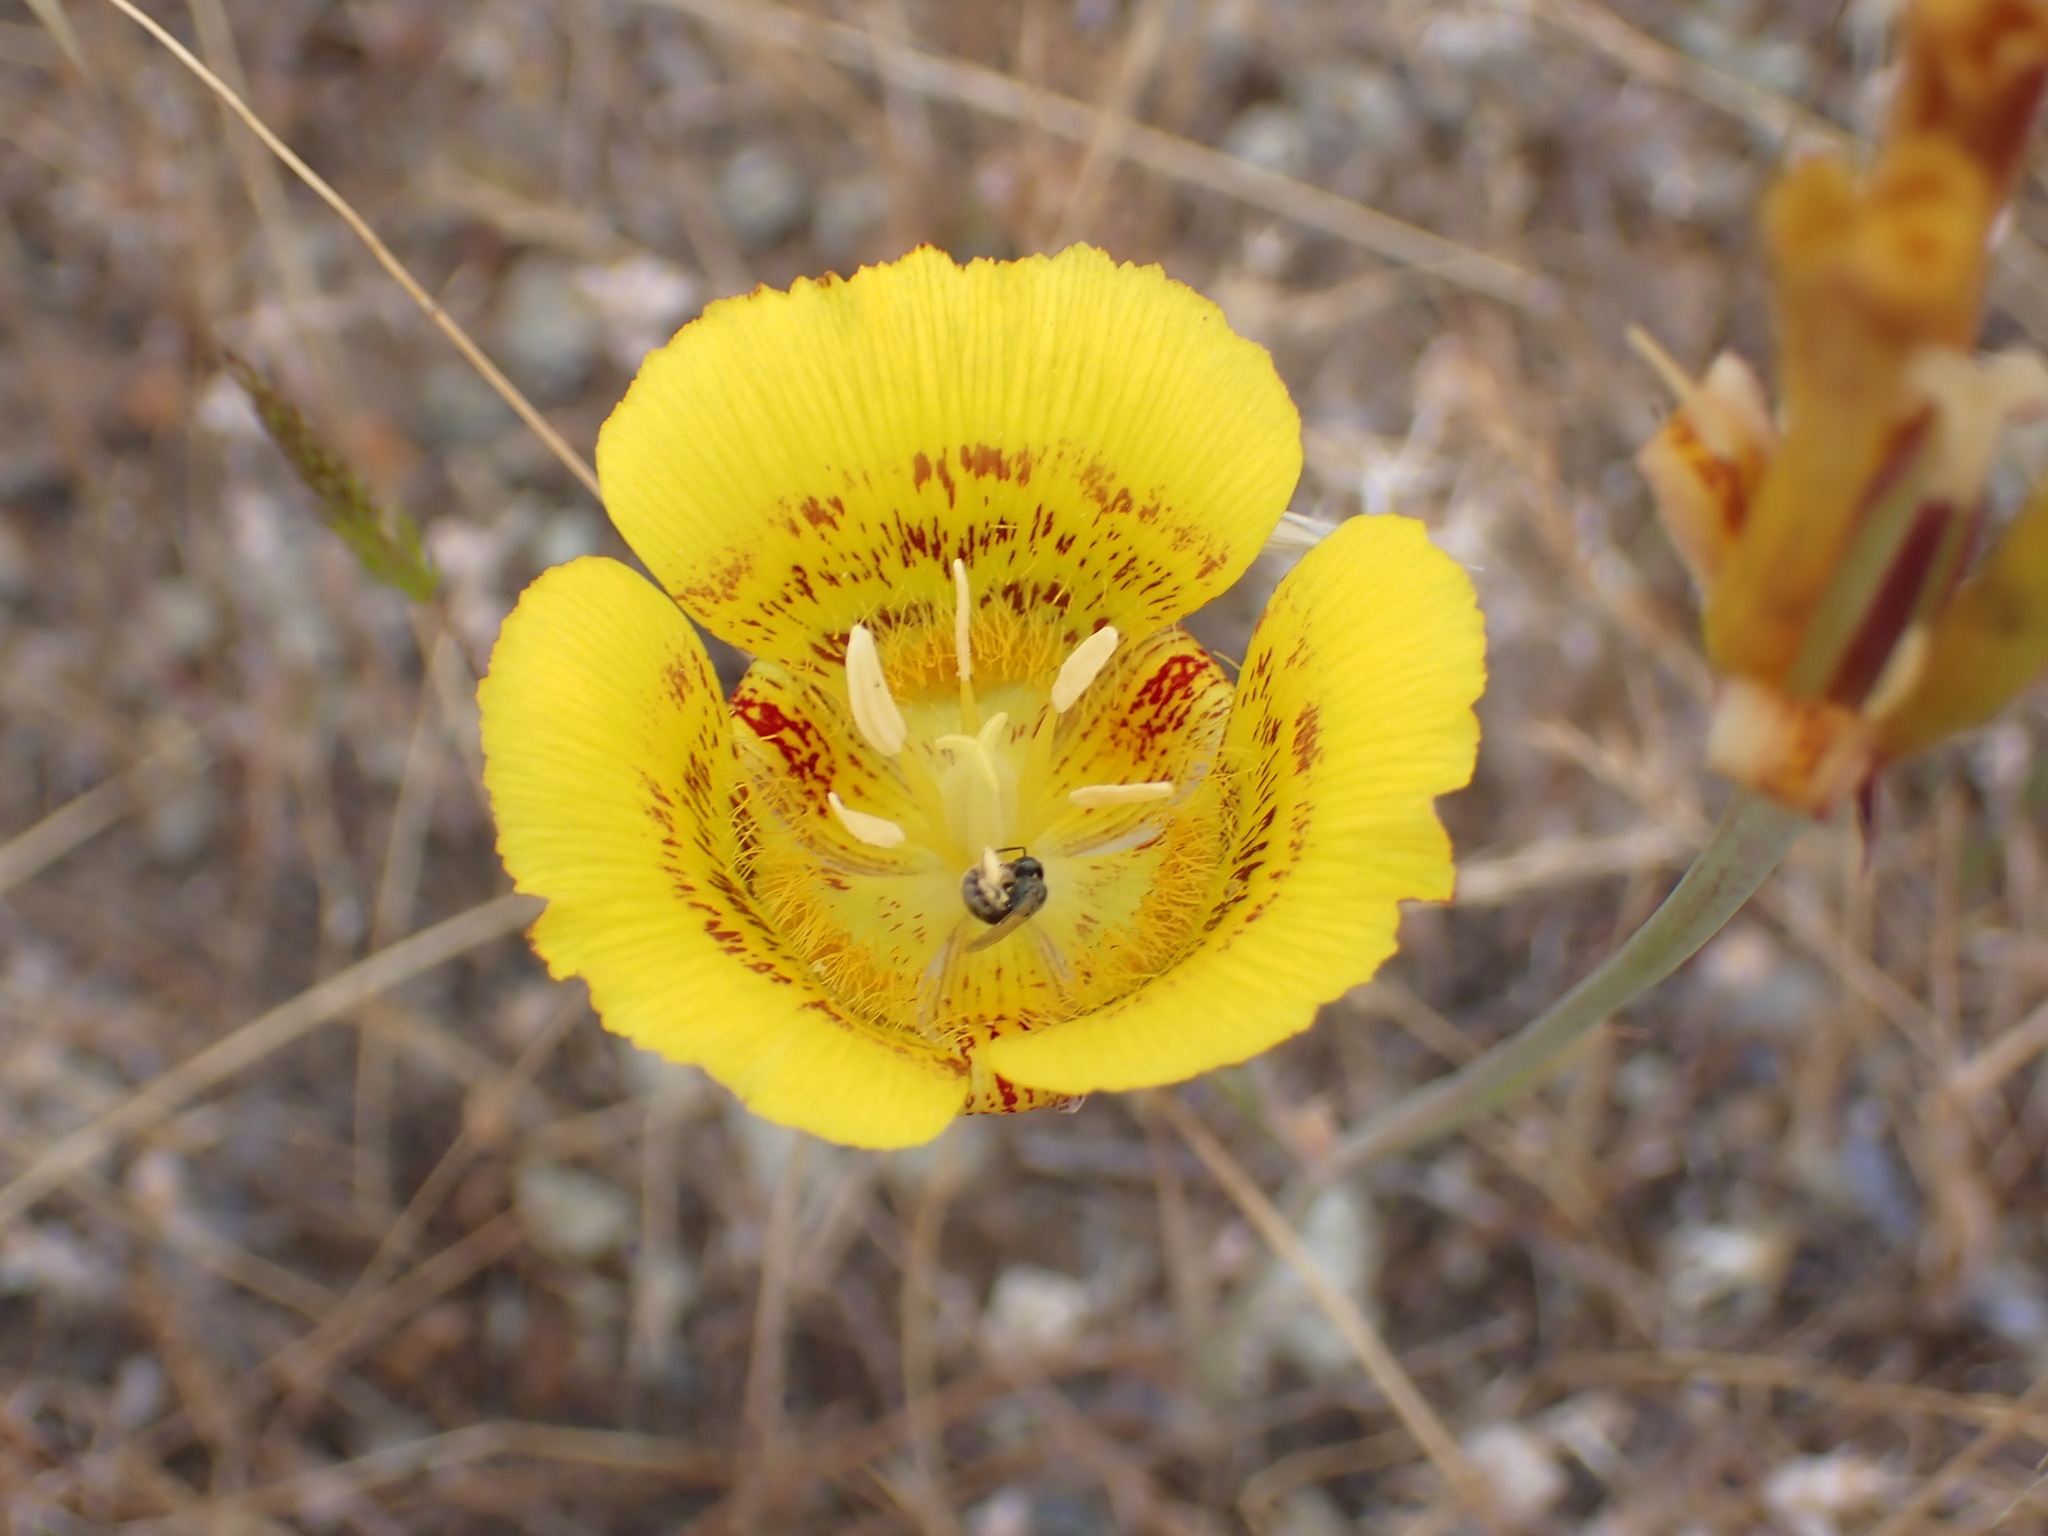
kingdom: Plantae
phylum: Tracheophyta
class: Liliopsida
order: Liliales
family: Liliaceae
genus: Calochortus
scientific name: Calochortus luteus
